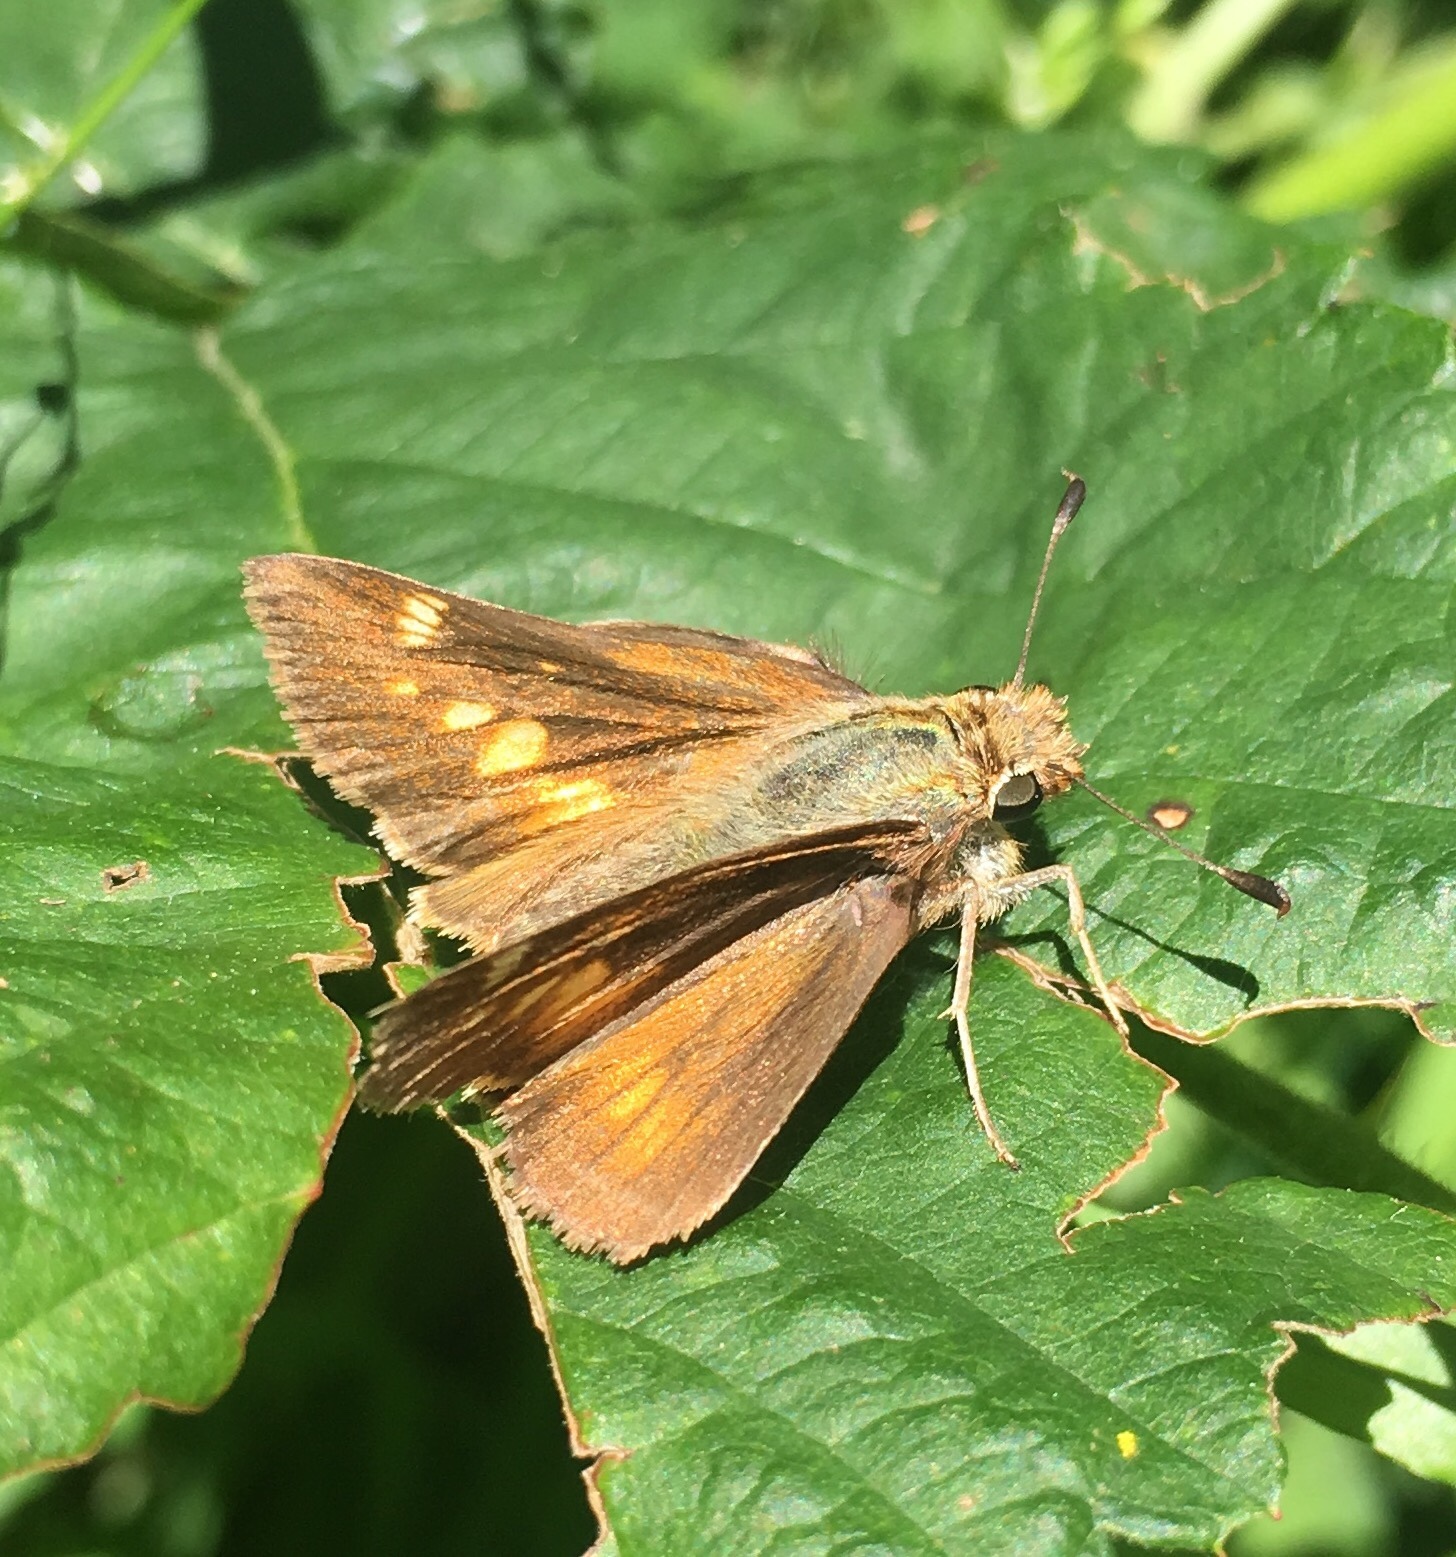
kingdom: Animalia
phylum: Arthropoda
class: Insecta
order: Lepidoptera
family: Hesperiidae
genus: Lon
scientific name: Lon melane
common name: Umber skipper
